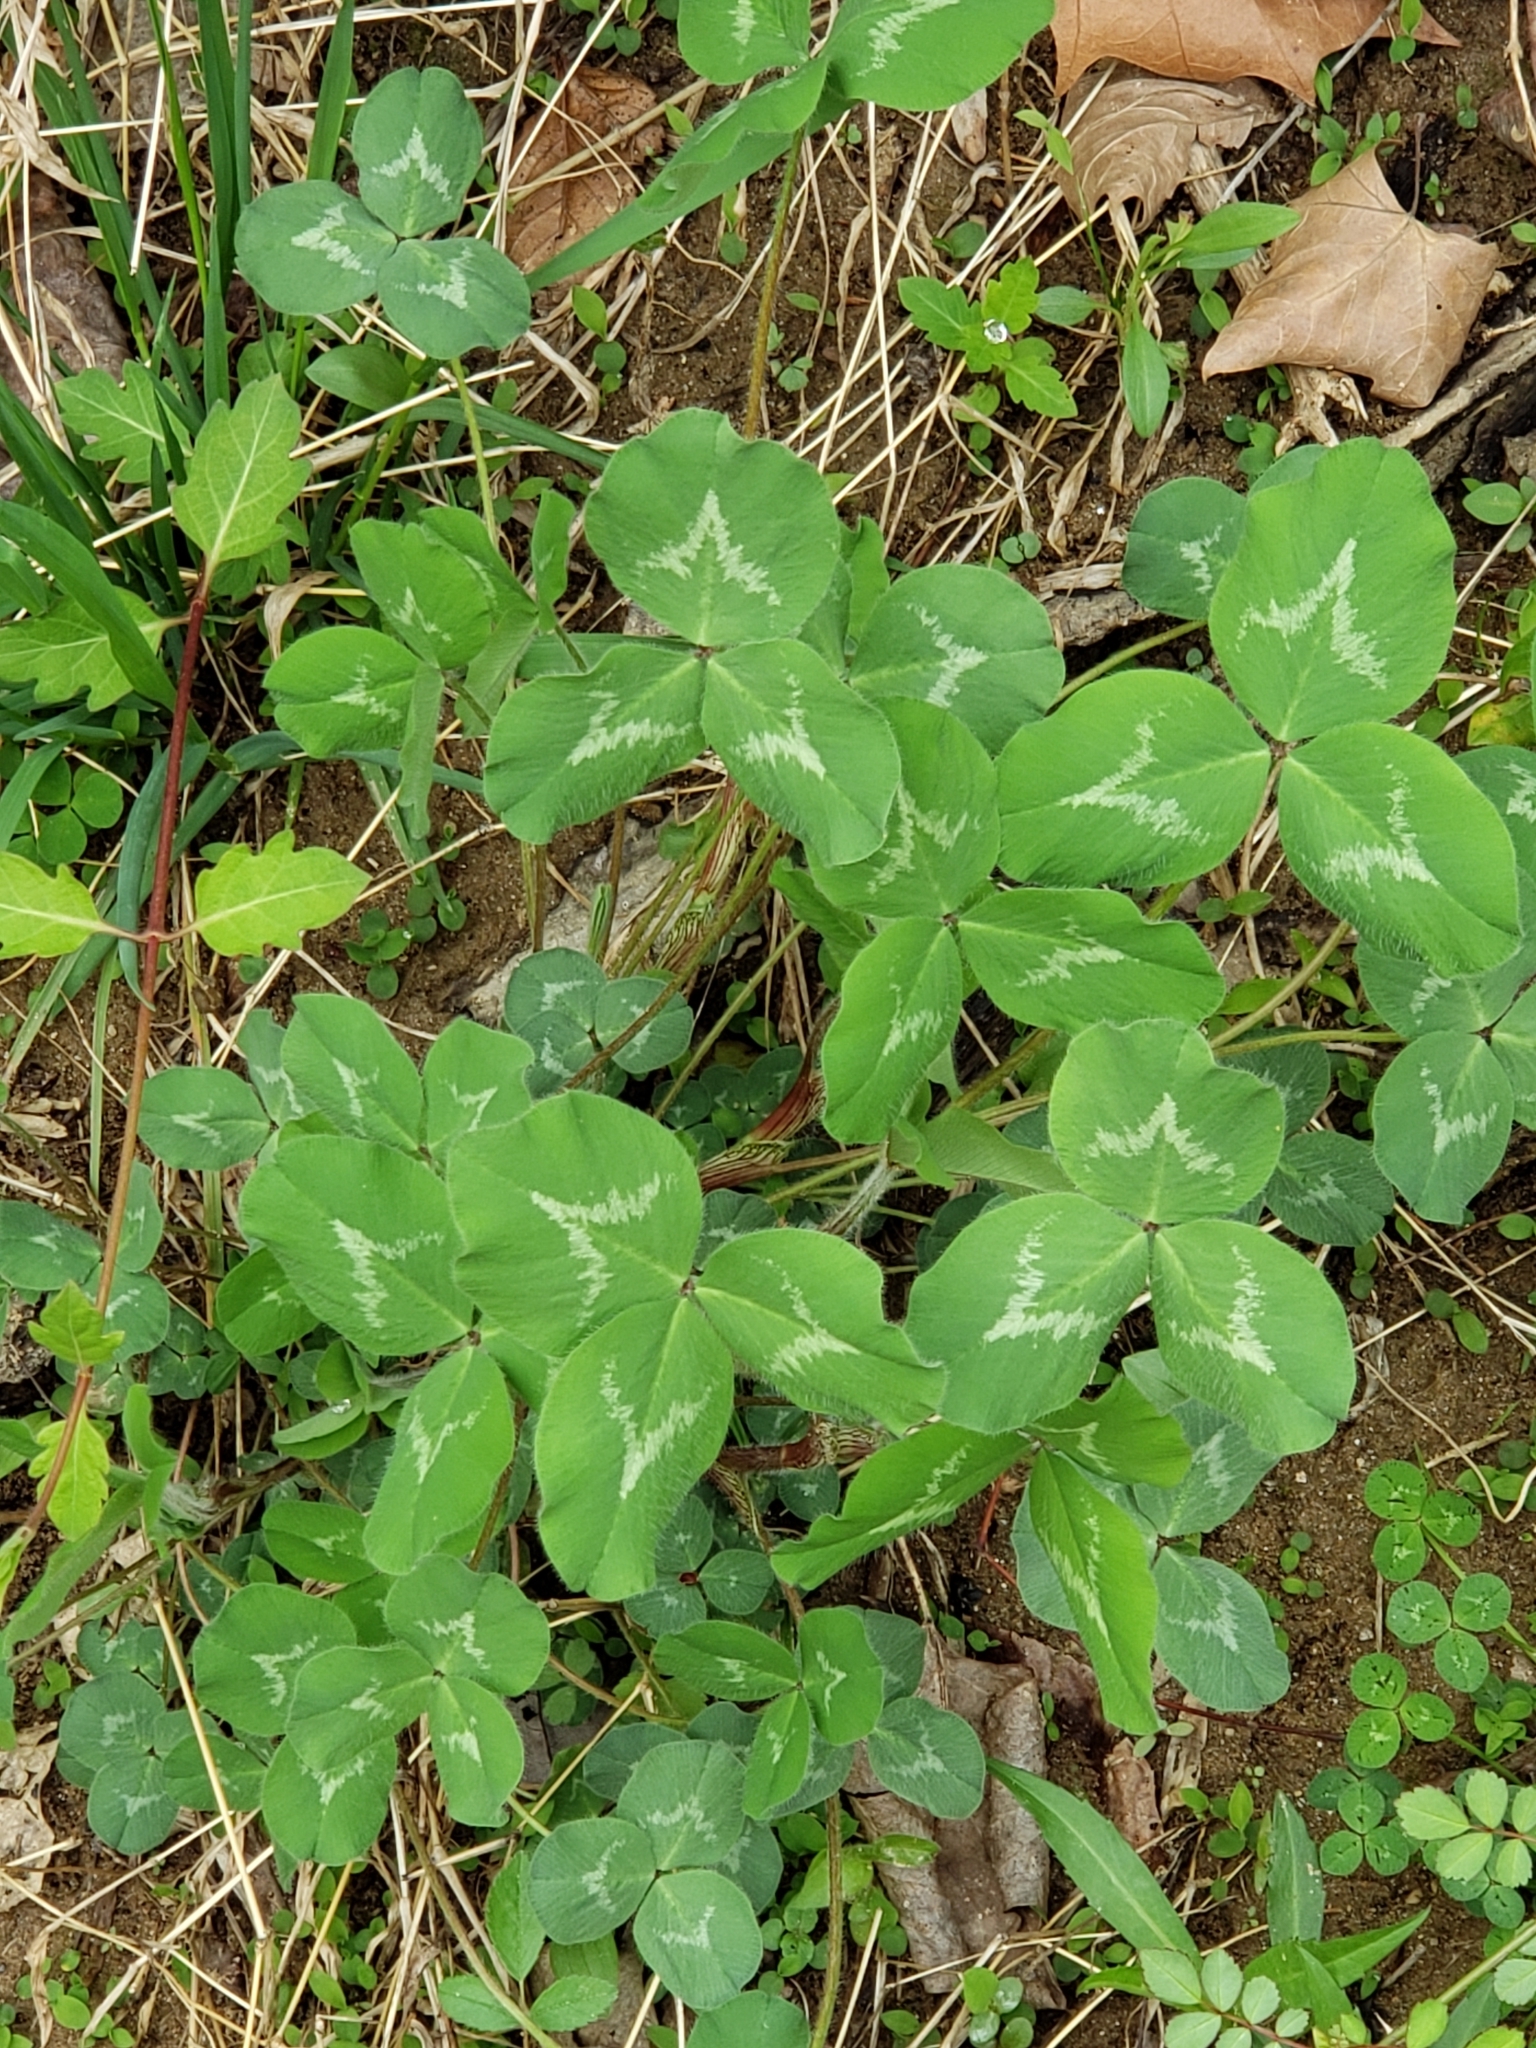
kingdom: Plantae
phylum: Tracheophyta
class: Magnoliopsida
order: Fabales
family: Fabaceae
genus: Trifolium
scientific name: Trifolium pratense
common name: Red clover
